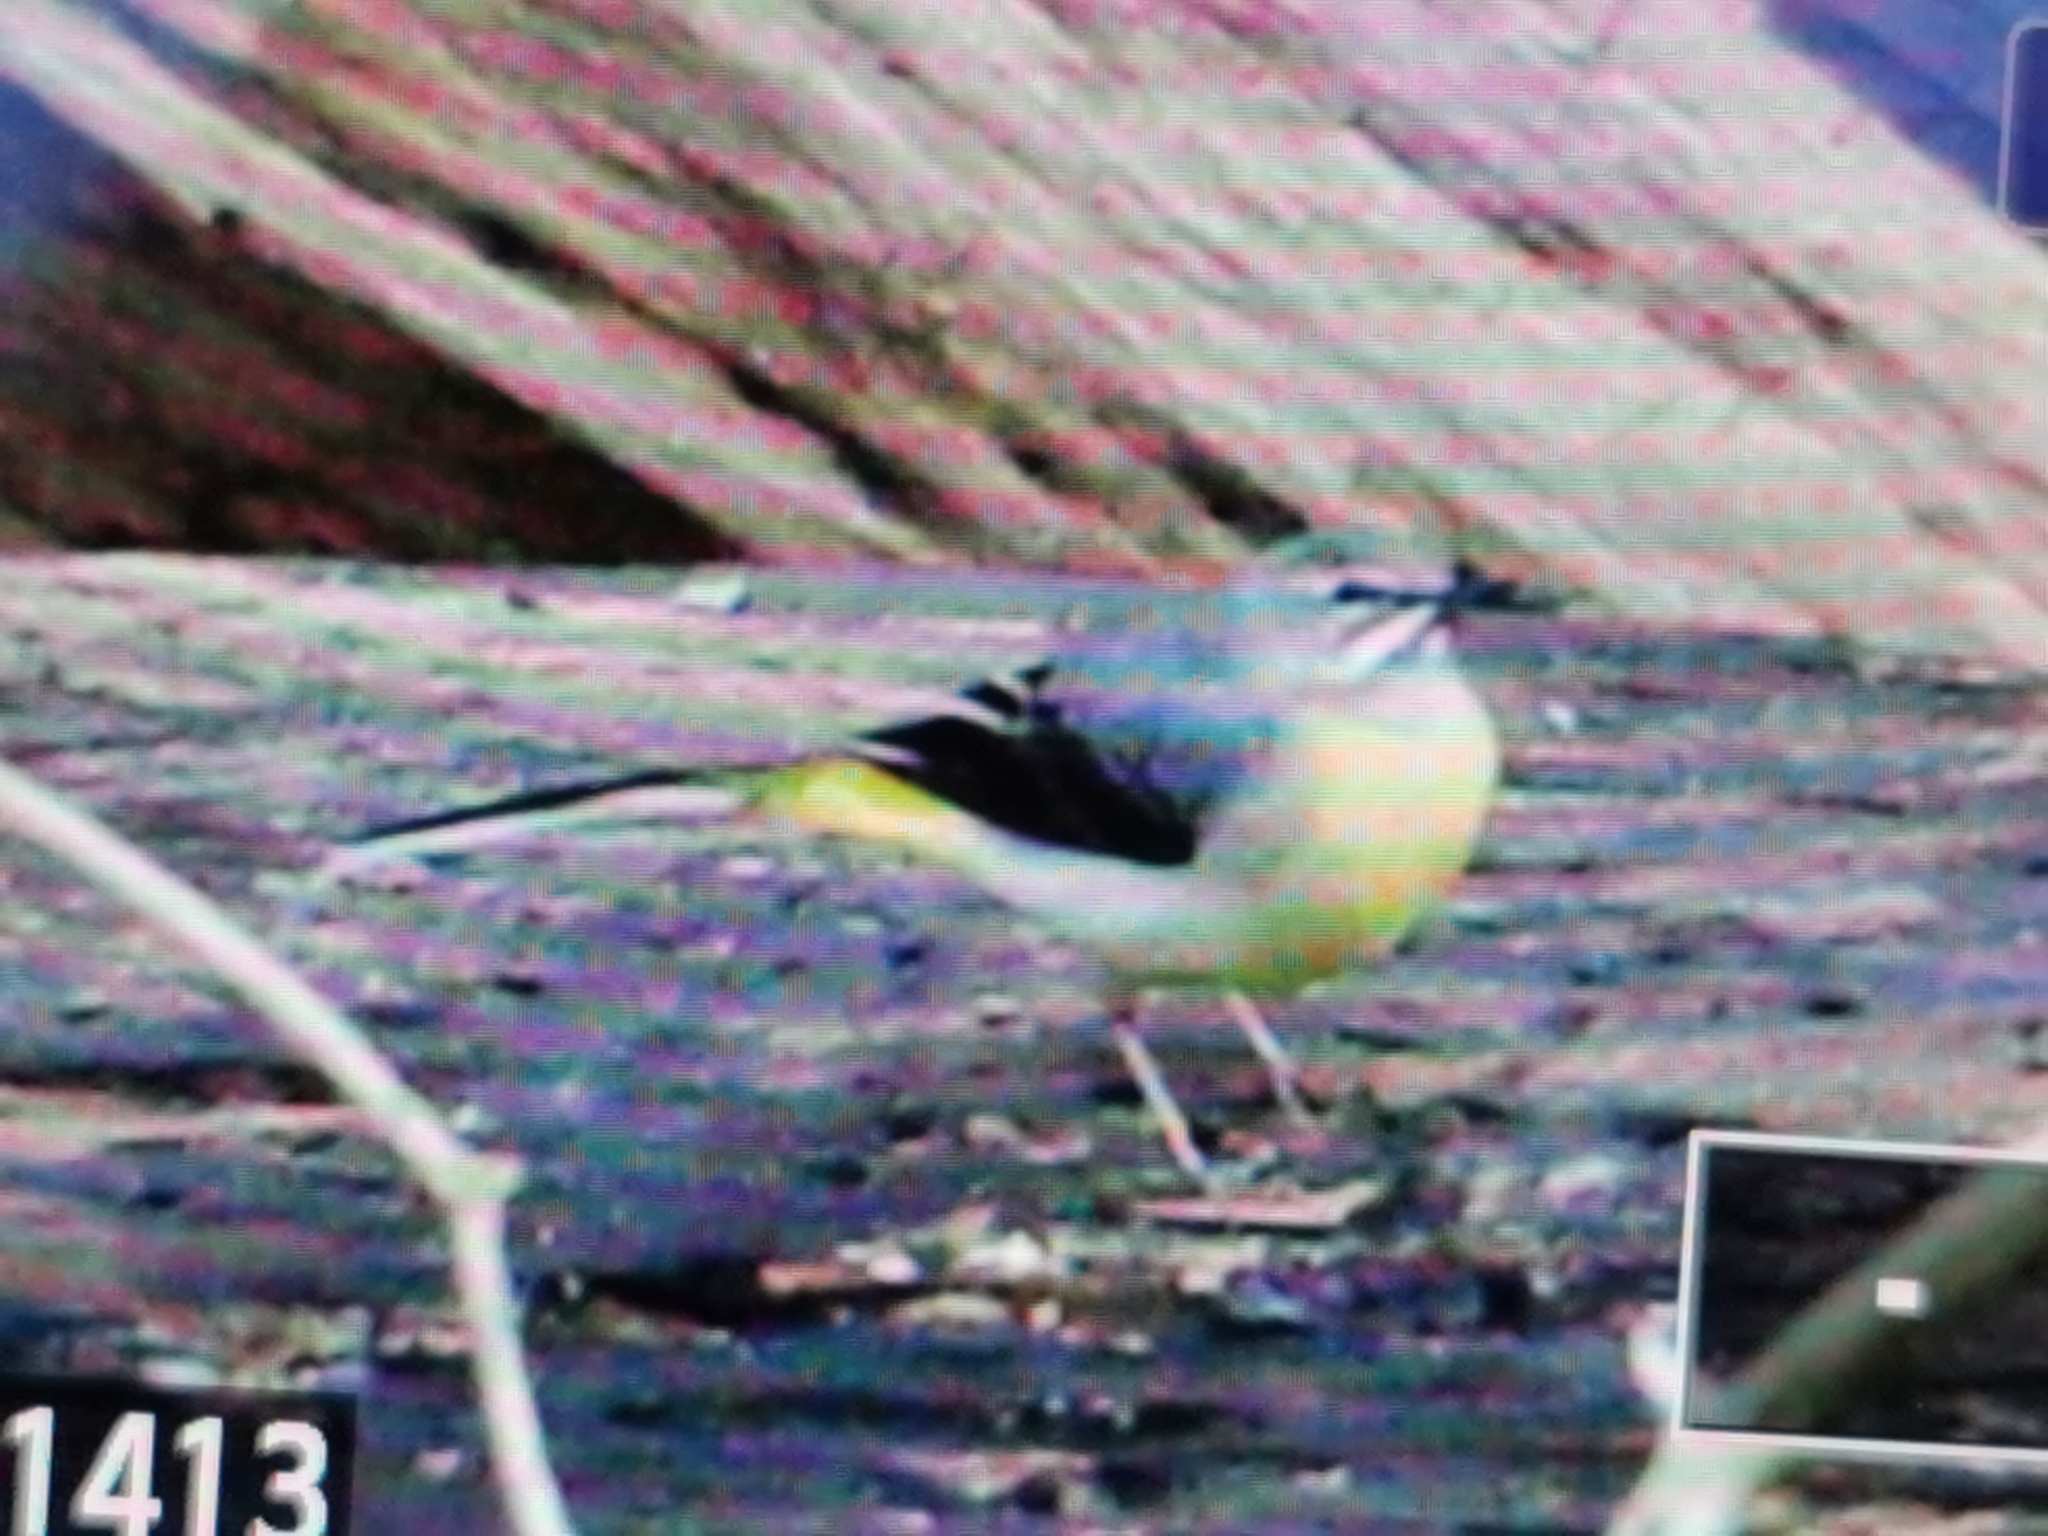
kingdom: Animalia
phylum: Chordata
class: Aves
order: Passeriformes
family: Motacillidae
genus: Motacilla
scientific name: Motacilla cinerea
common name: Grey wagtail
